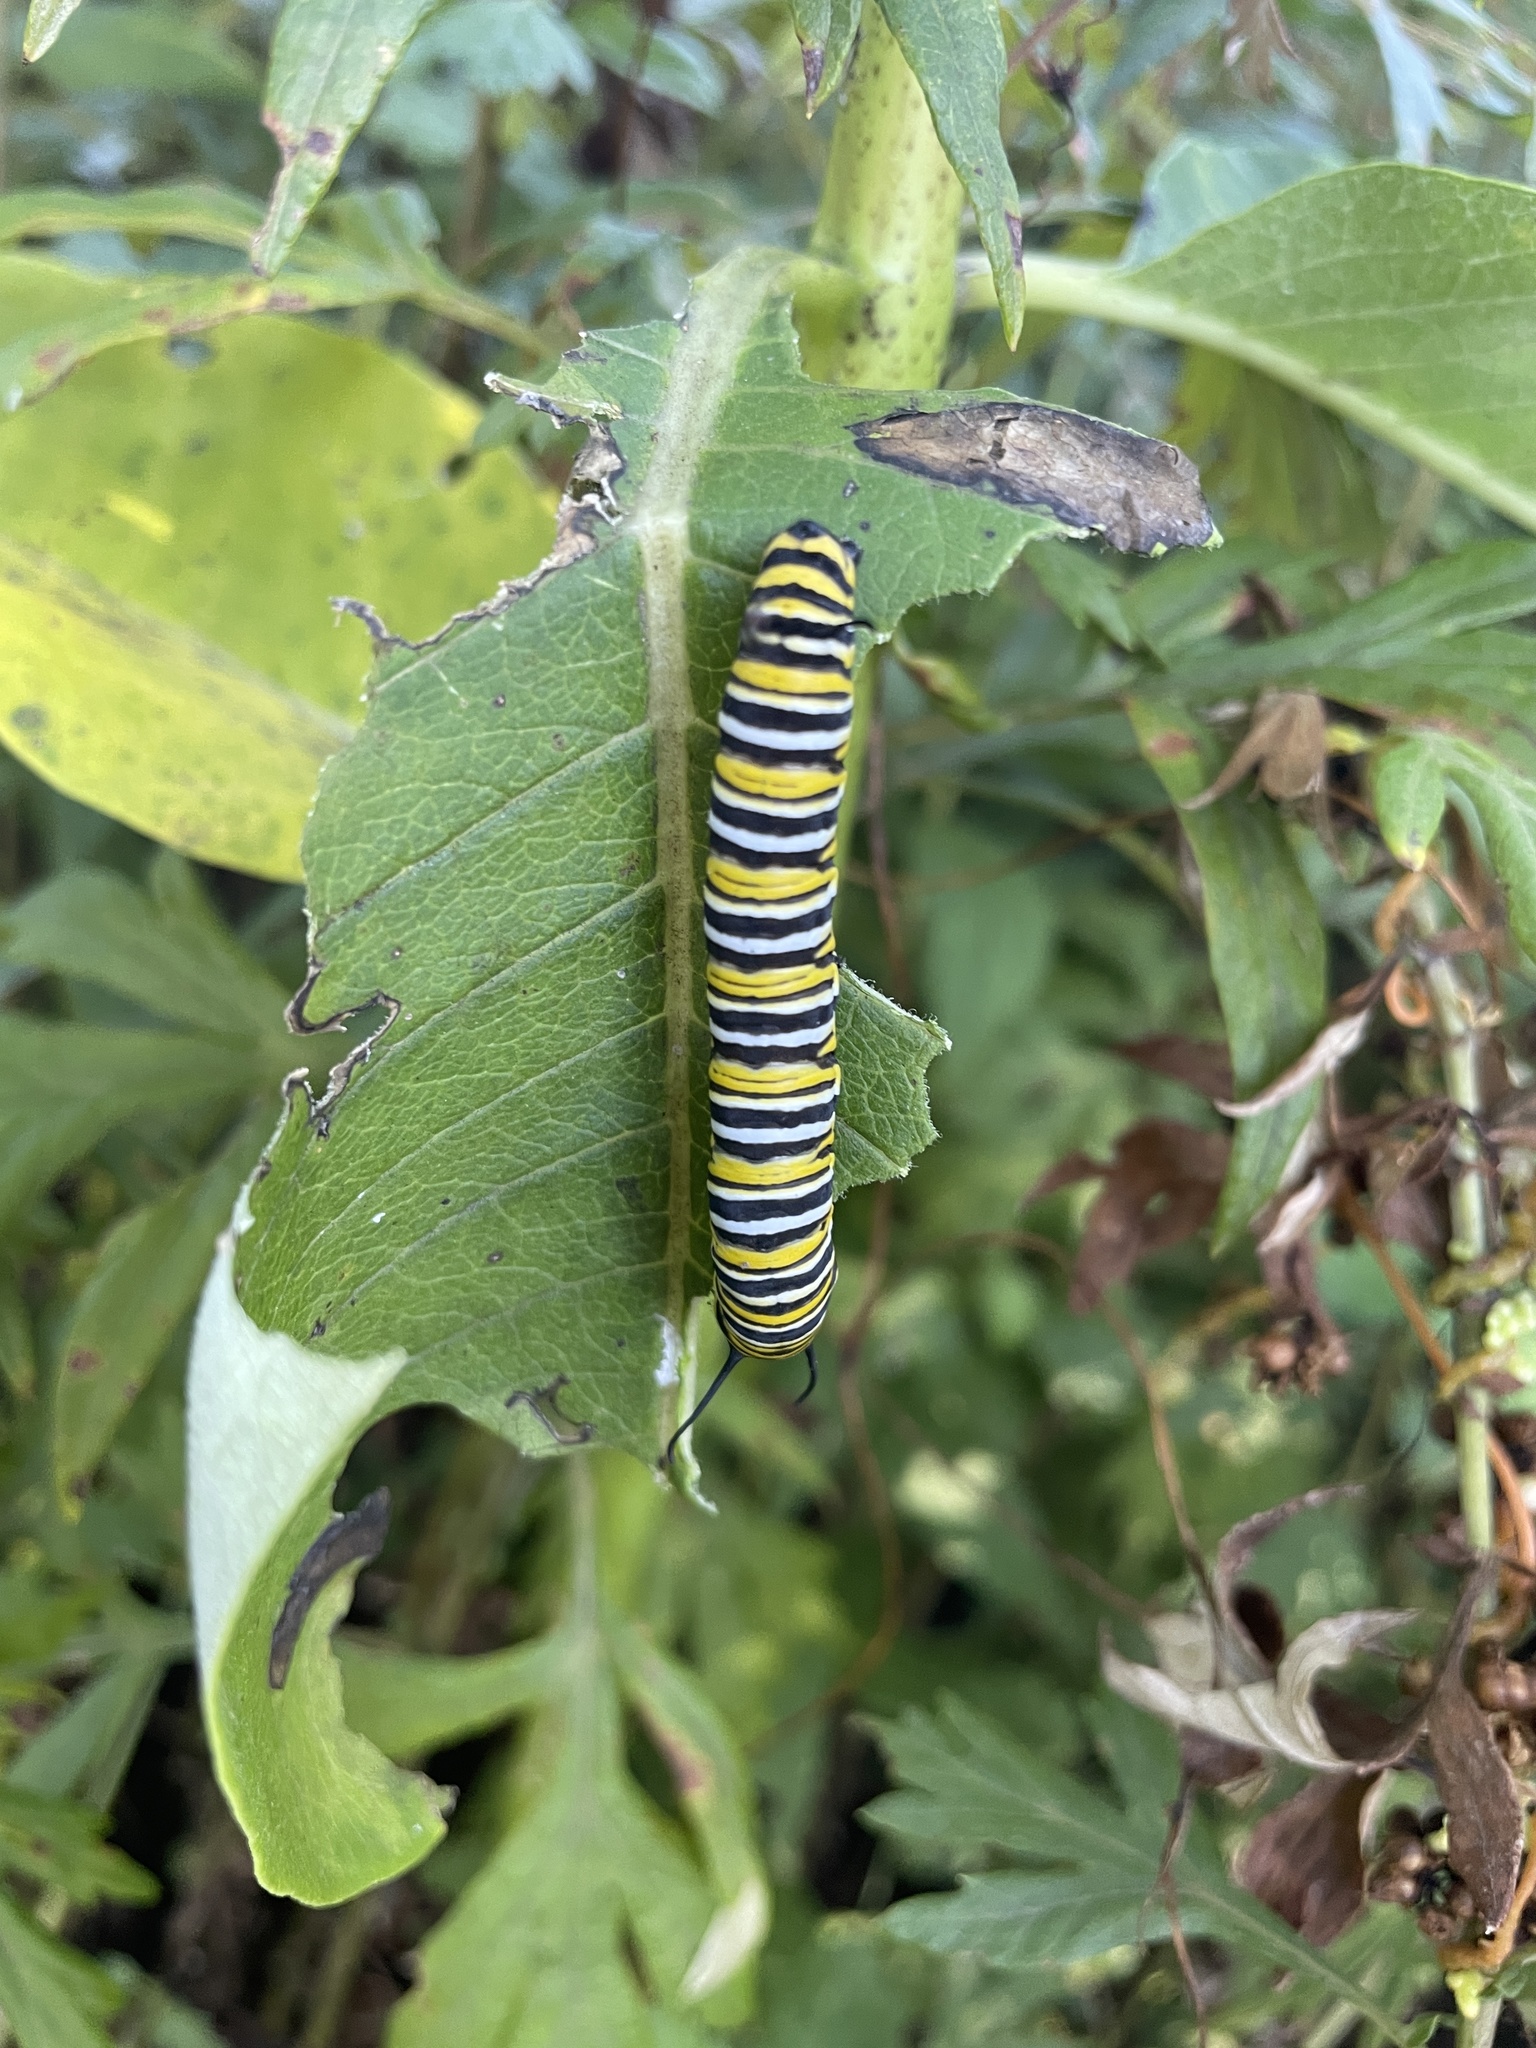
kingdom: Animalia
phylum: Arthropoda
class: Insecta
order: Lepidoptera
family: Nymphalidae
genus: Danaus
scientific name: Danaus plexippus
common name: Monarch
